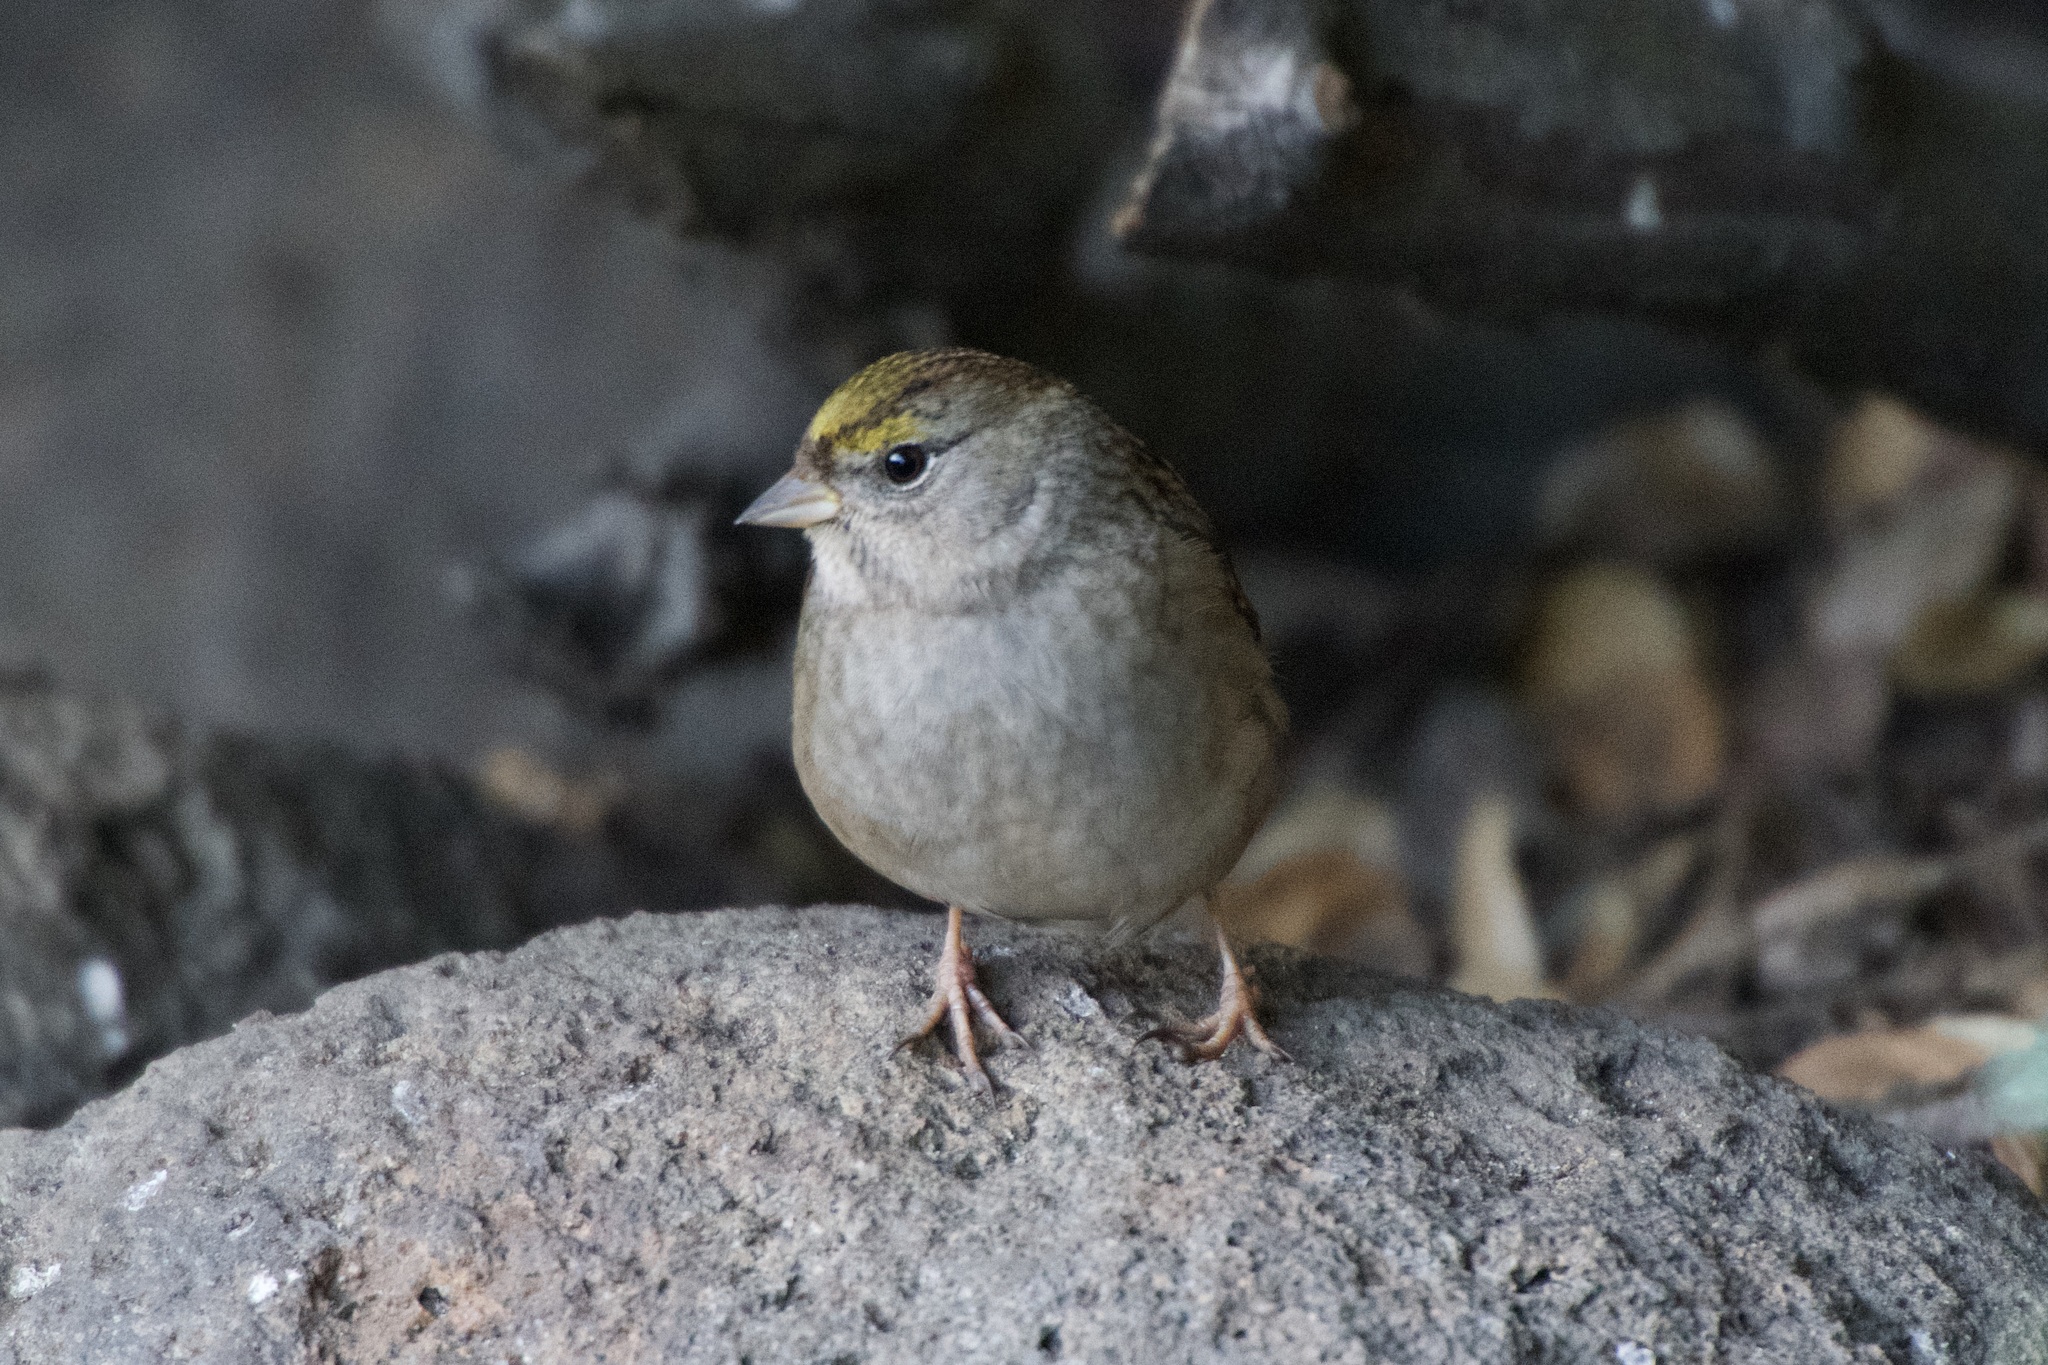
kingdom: Animalia
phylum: Chordata
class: Aves
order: Passeriformes
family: Passerellidae
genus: Zonotrichia
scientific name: Zonotrichia atricapilla
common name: Golden-crowned sparrow
